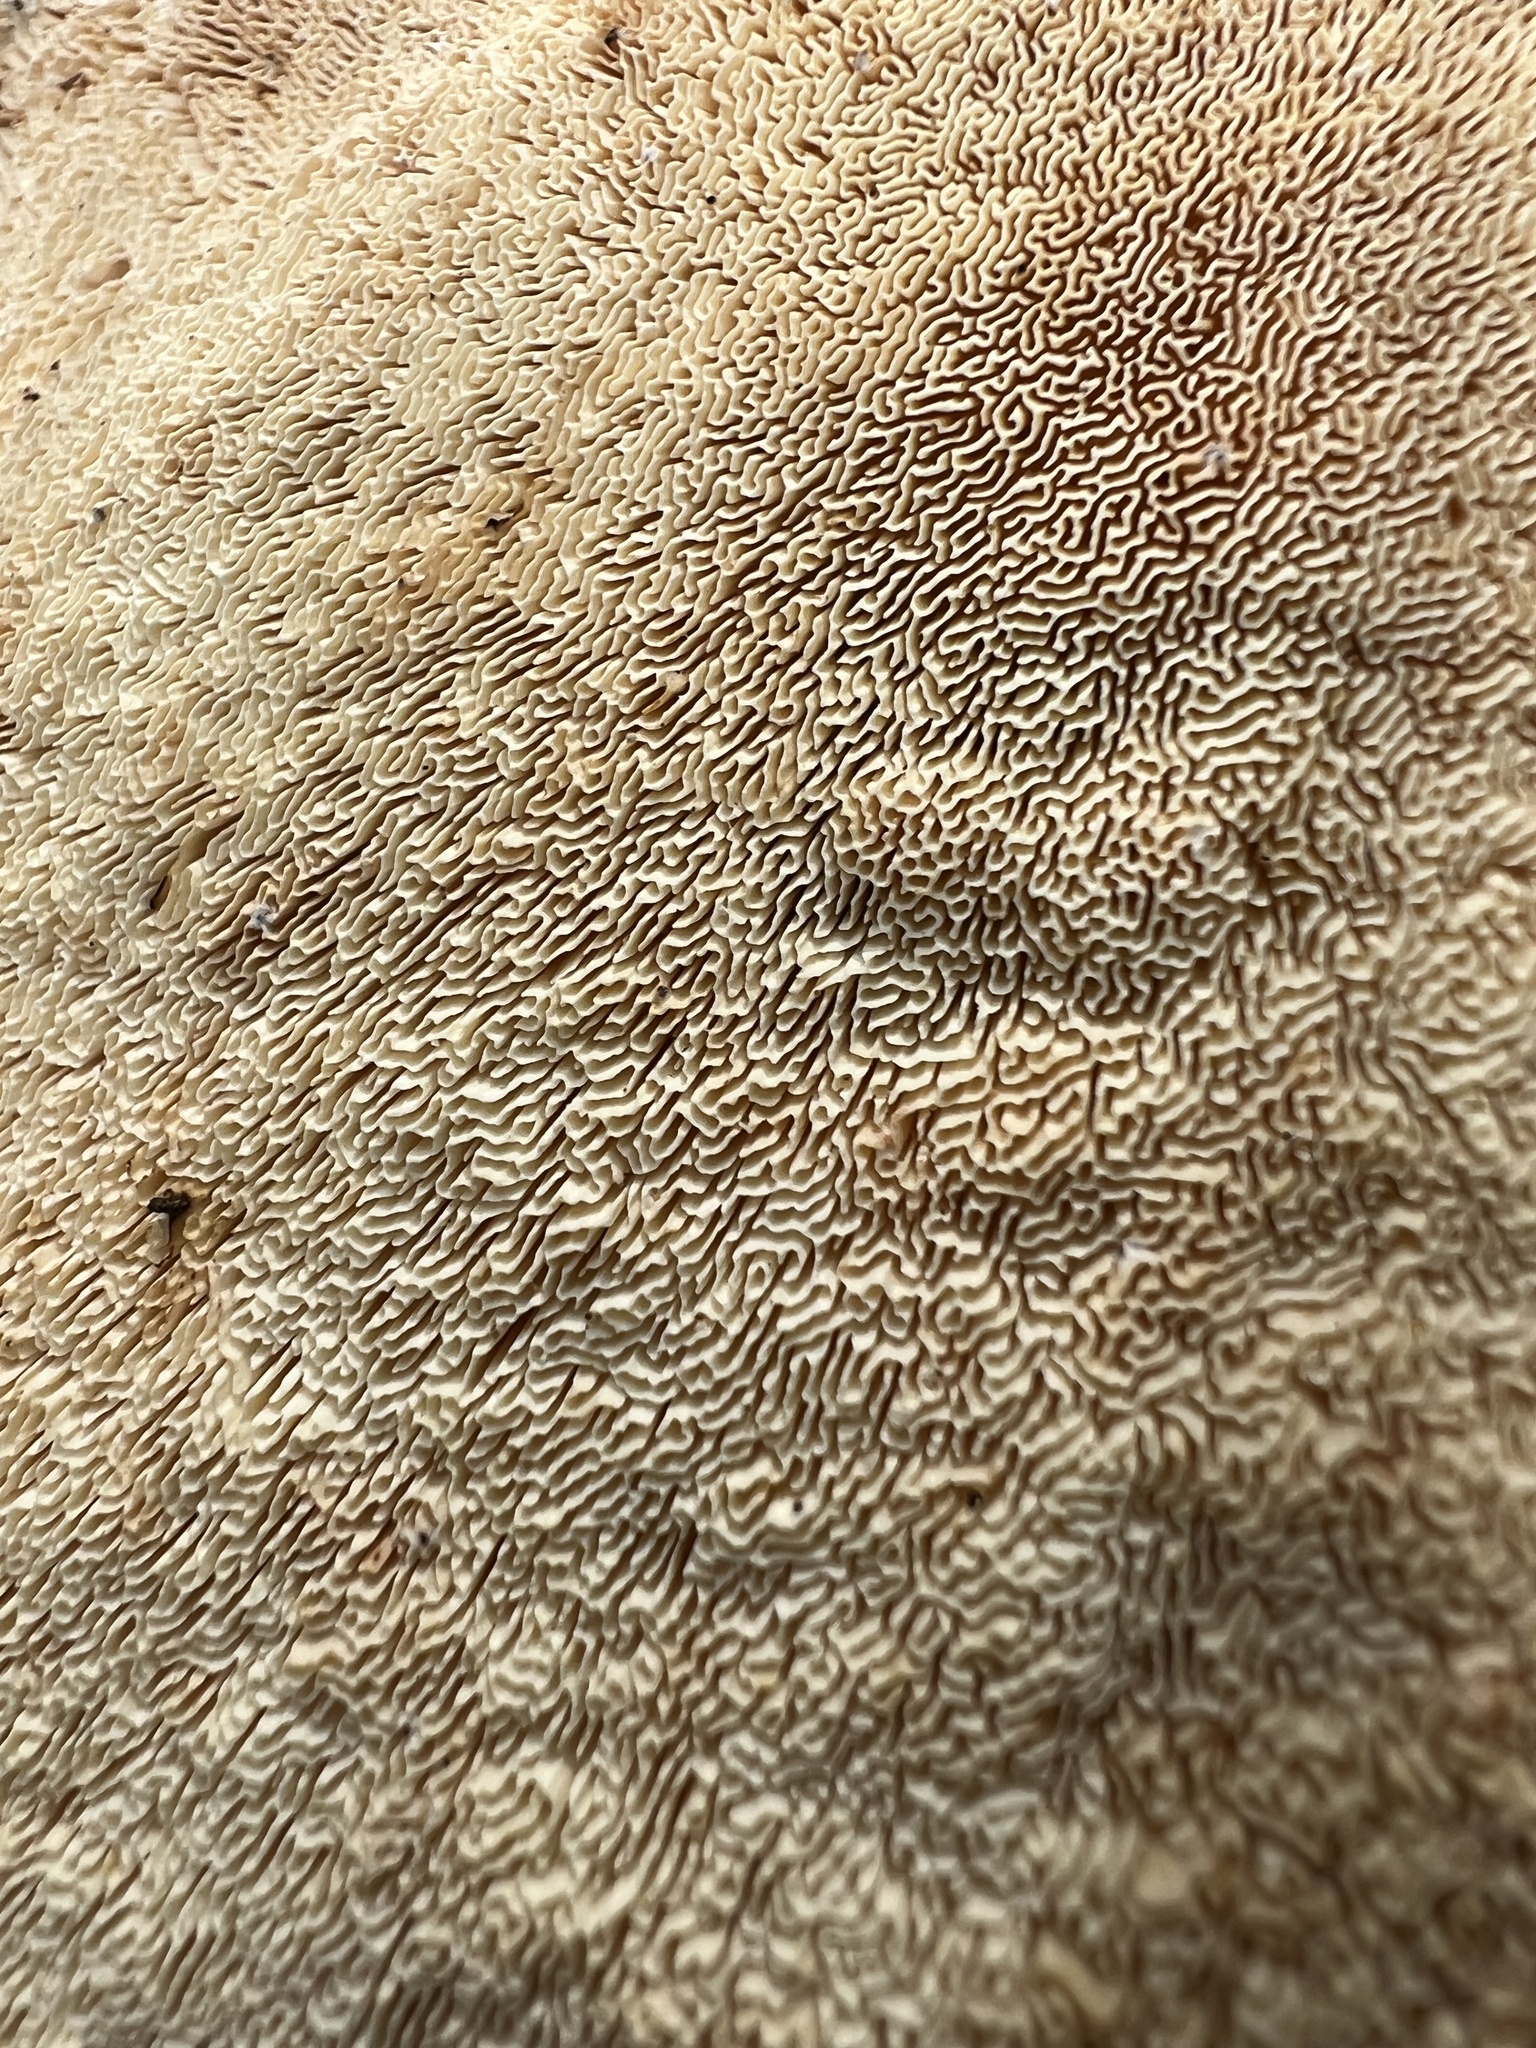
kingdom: Fungi
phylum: Basidiomycota
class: Agaricomycetes
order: Polyporales
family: Polyporaceae
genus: Trametes
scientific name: Trametes
